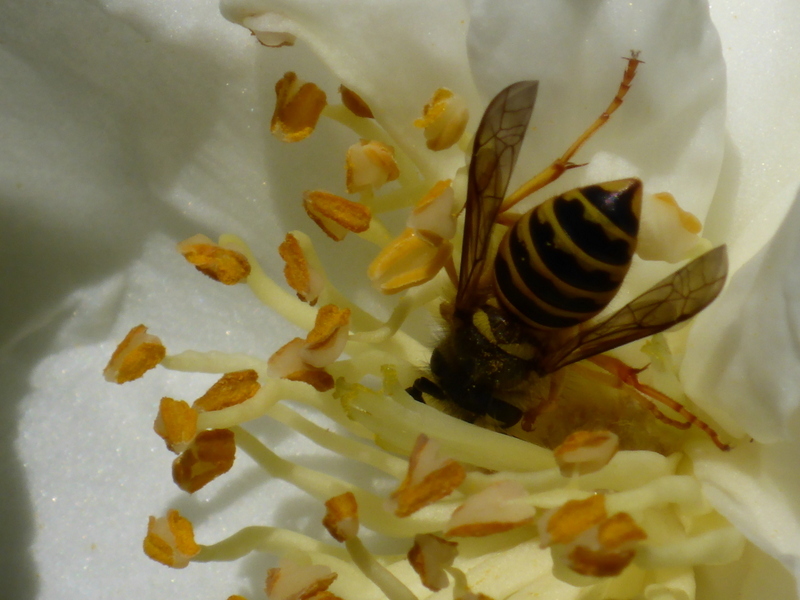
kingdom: Animalia
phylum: Arthropoda
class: Insecta
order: Hymenoptera
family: Vespidae
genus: Vespula
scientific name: Vespula maculifrons
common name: Eastern yellowjacket
